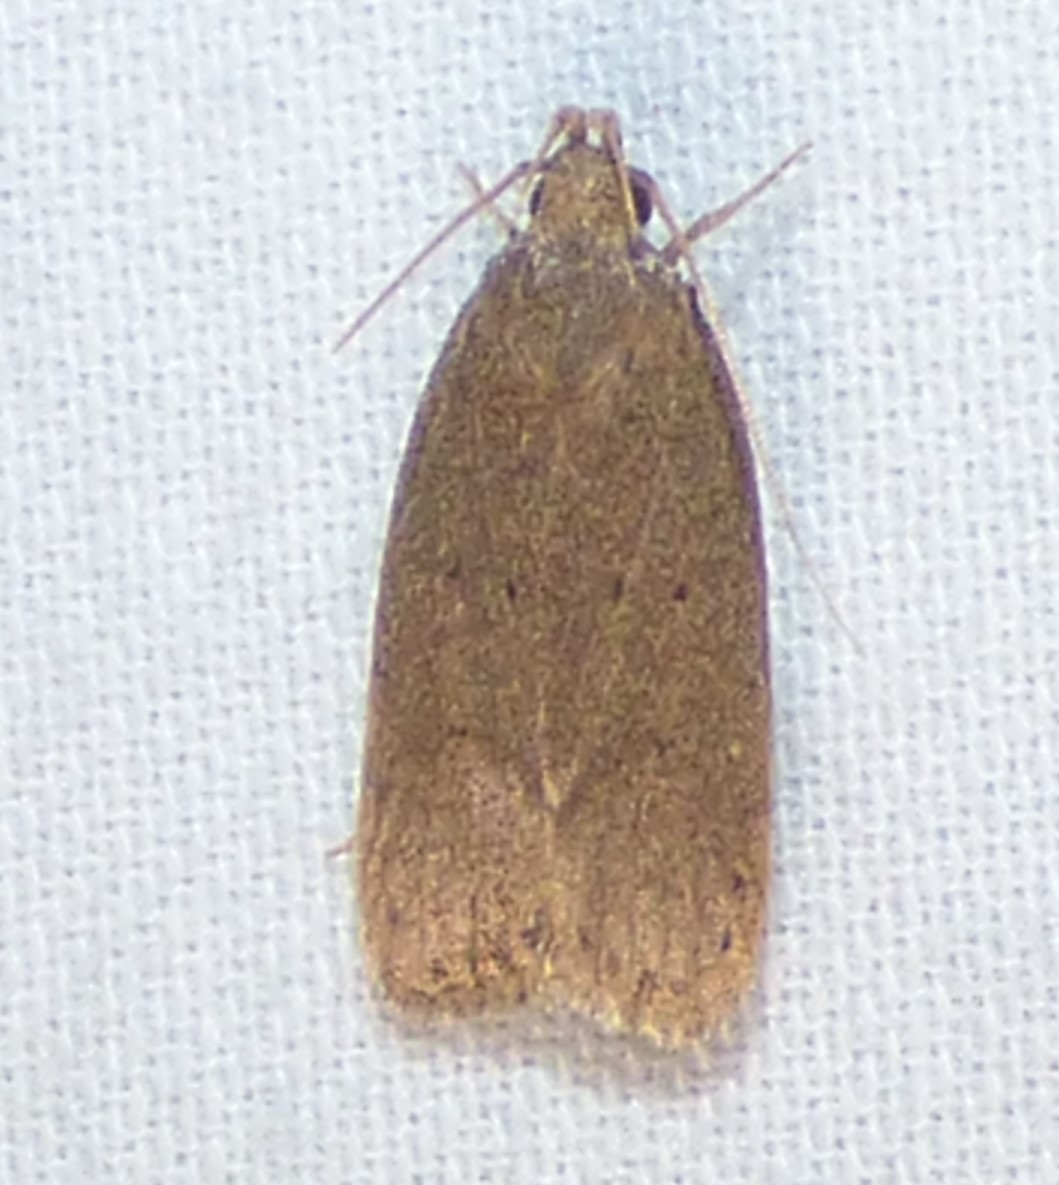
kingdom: Animalia
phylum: Arthropoda
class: Insecta
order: Lepidoptera
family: Autostichidae
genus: Autosticha
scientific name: Autosticha kyotensis
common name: Kyoto moth
